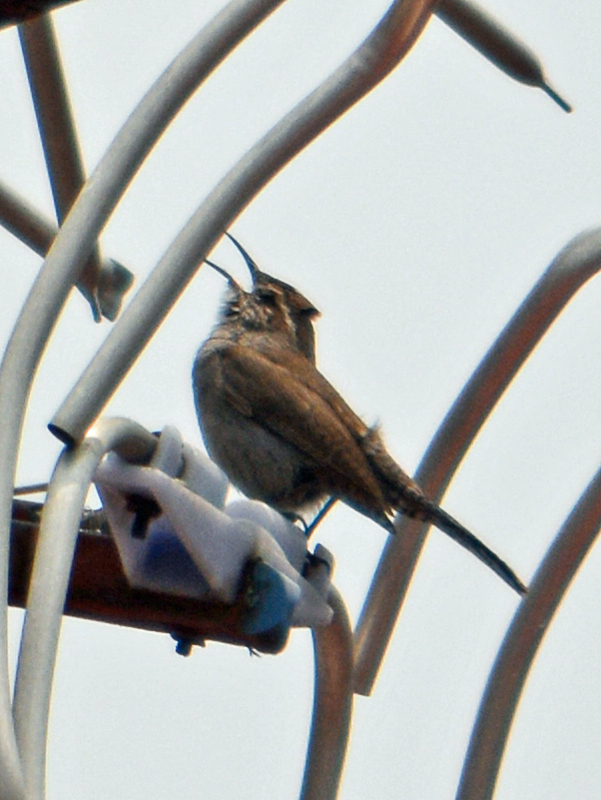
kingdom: Animalia
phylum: Chordata
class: Aves
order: Passeriformes
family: Troglodytidae
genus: Thryomanes
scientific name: Thryomanes bewickii
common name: Bewick's wren
